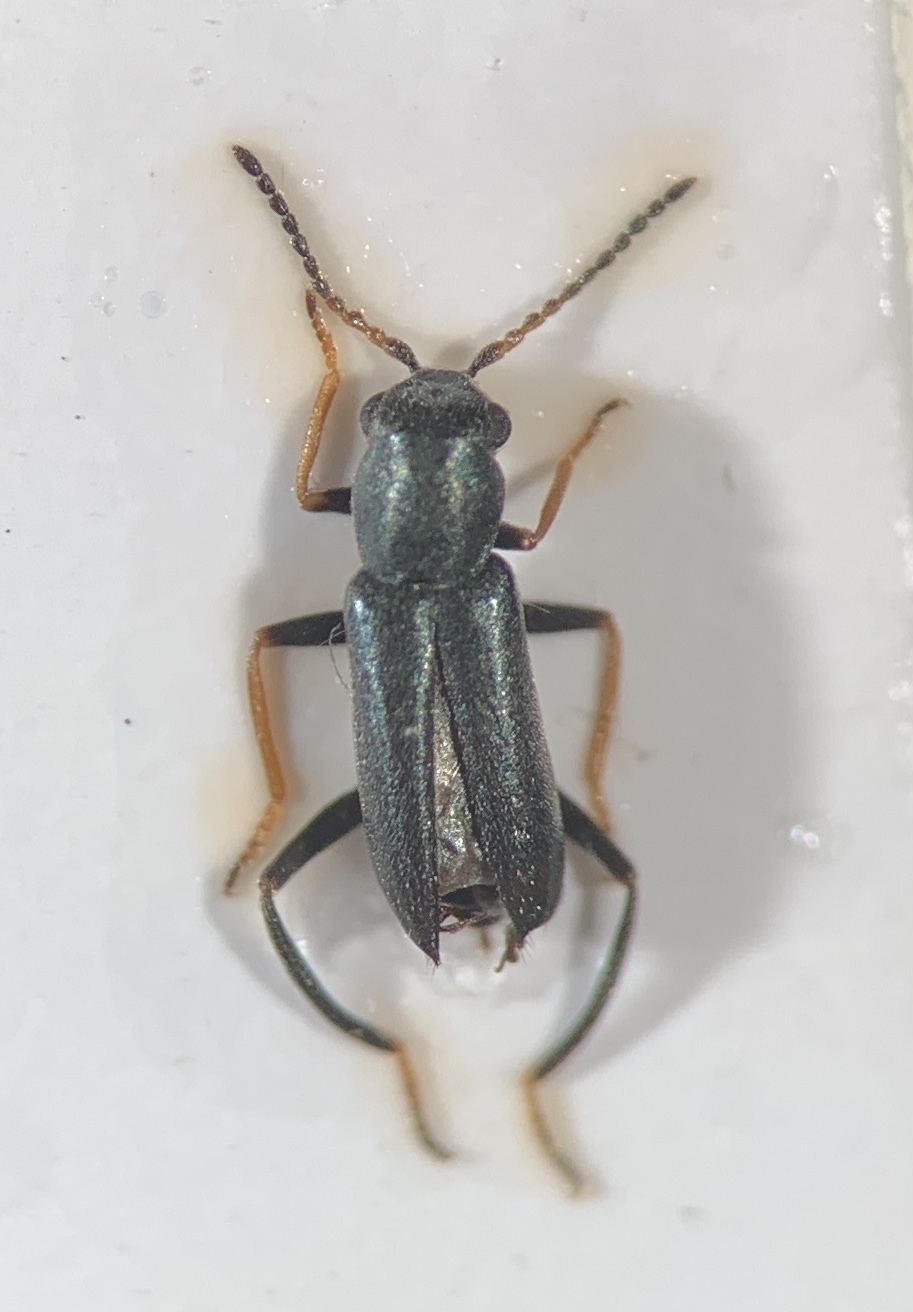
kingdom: Animalia
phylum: Arthropoda
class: Insecta
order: Coleoptera
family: Malachiidae
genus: Charopus
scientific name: Charopus
